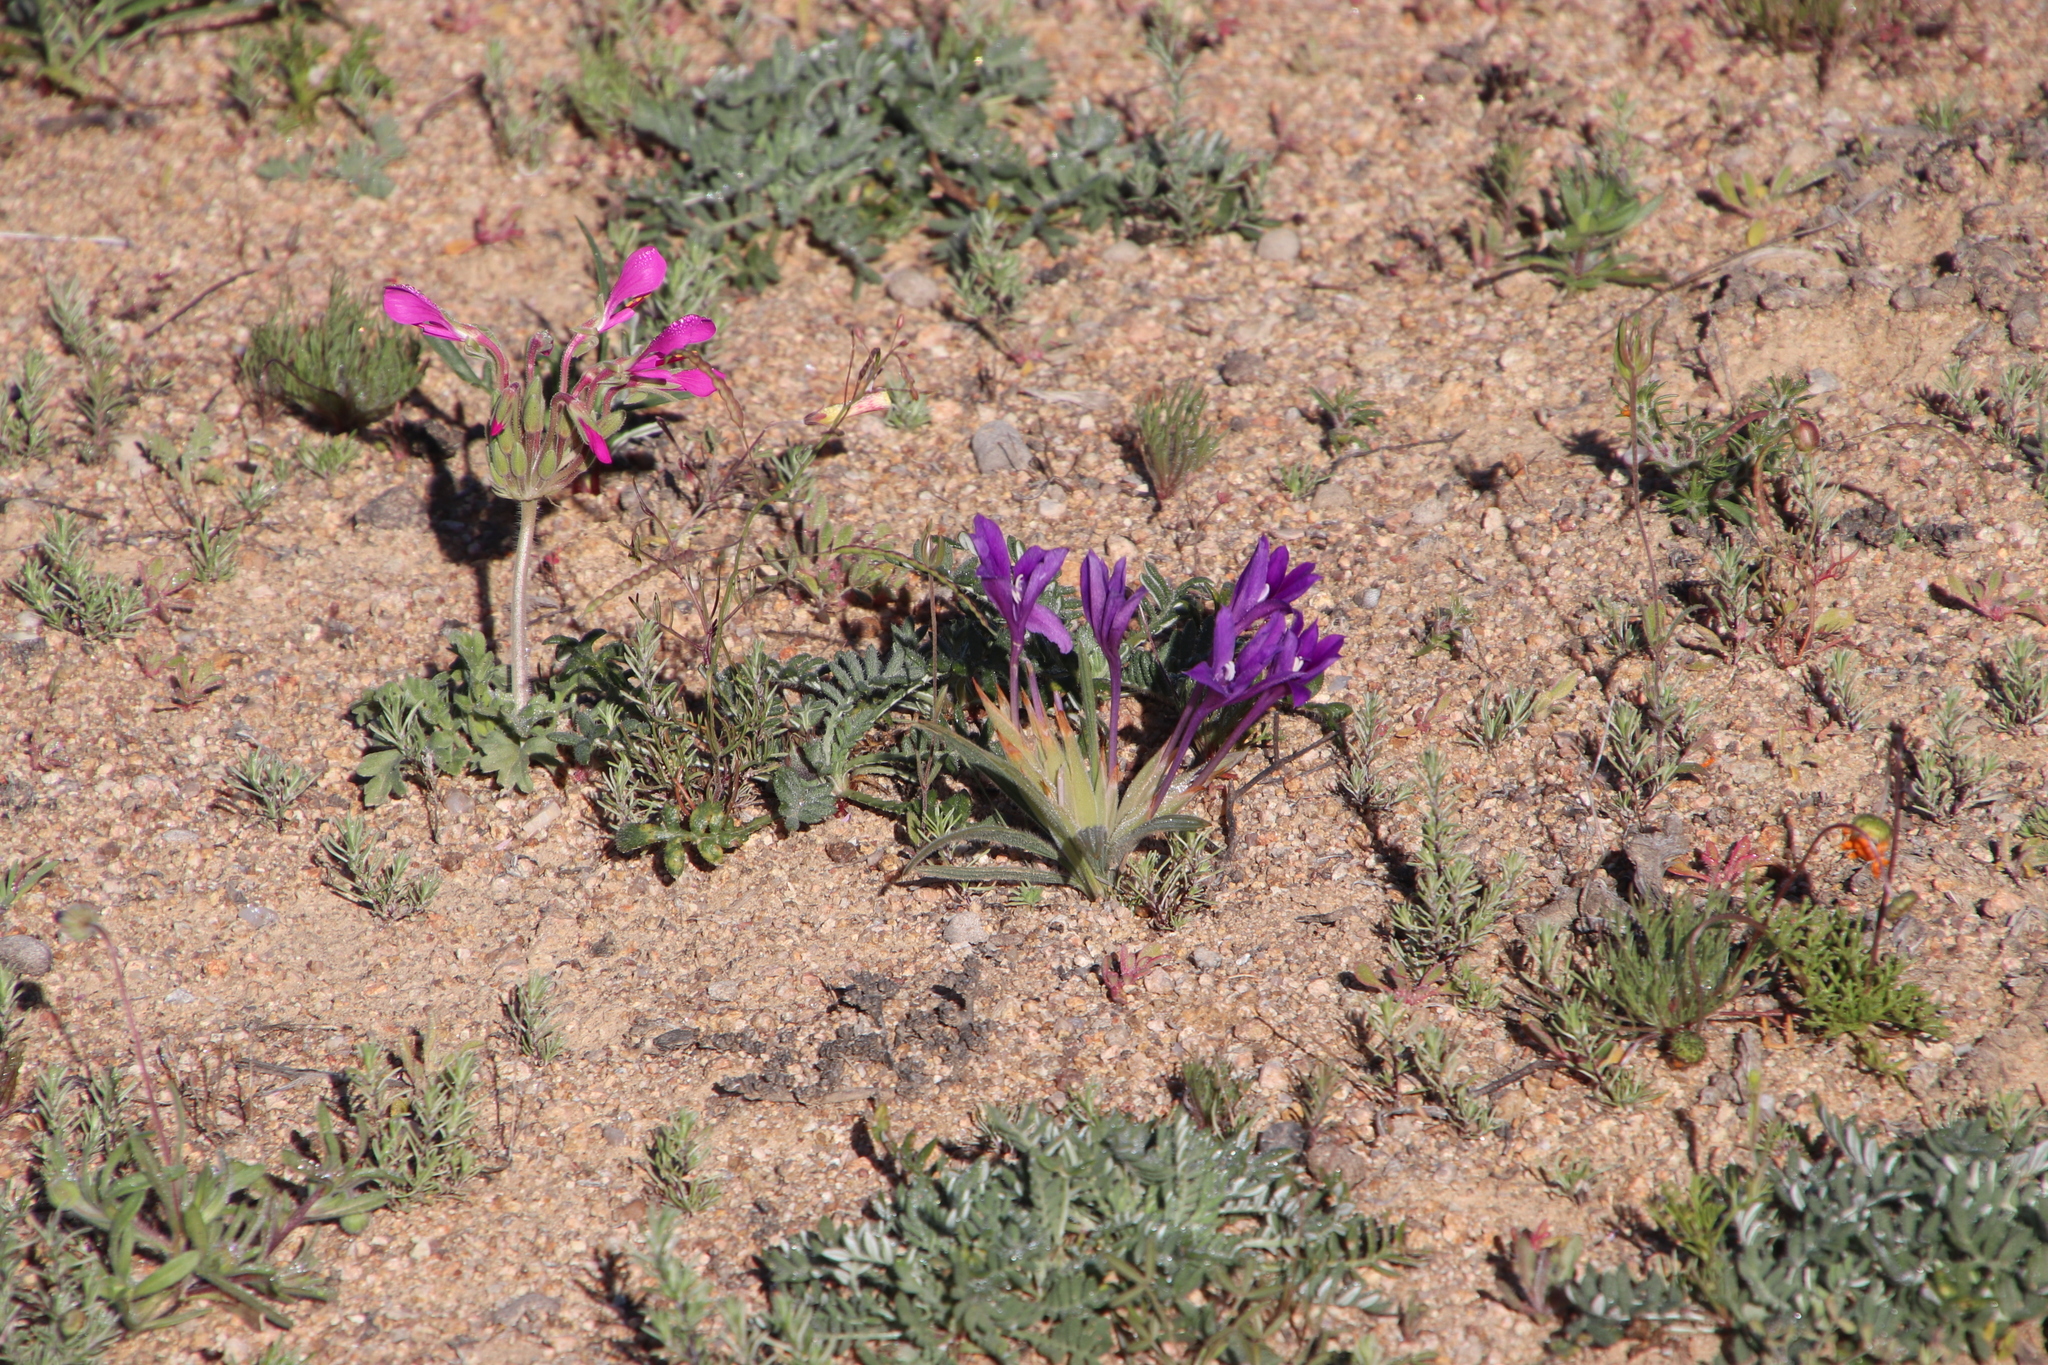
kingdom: Plantae
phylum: Tracheophyta
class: Magnoliopsida
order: Geraniales
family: Geraniaceae
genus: Pelargonium
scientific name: Pelargonium incrassatum
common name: Namaqualand beauty
